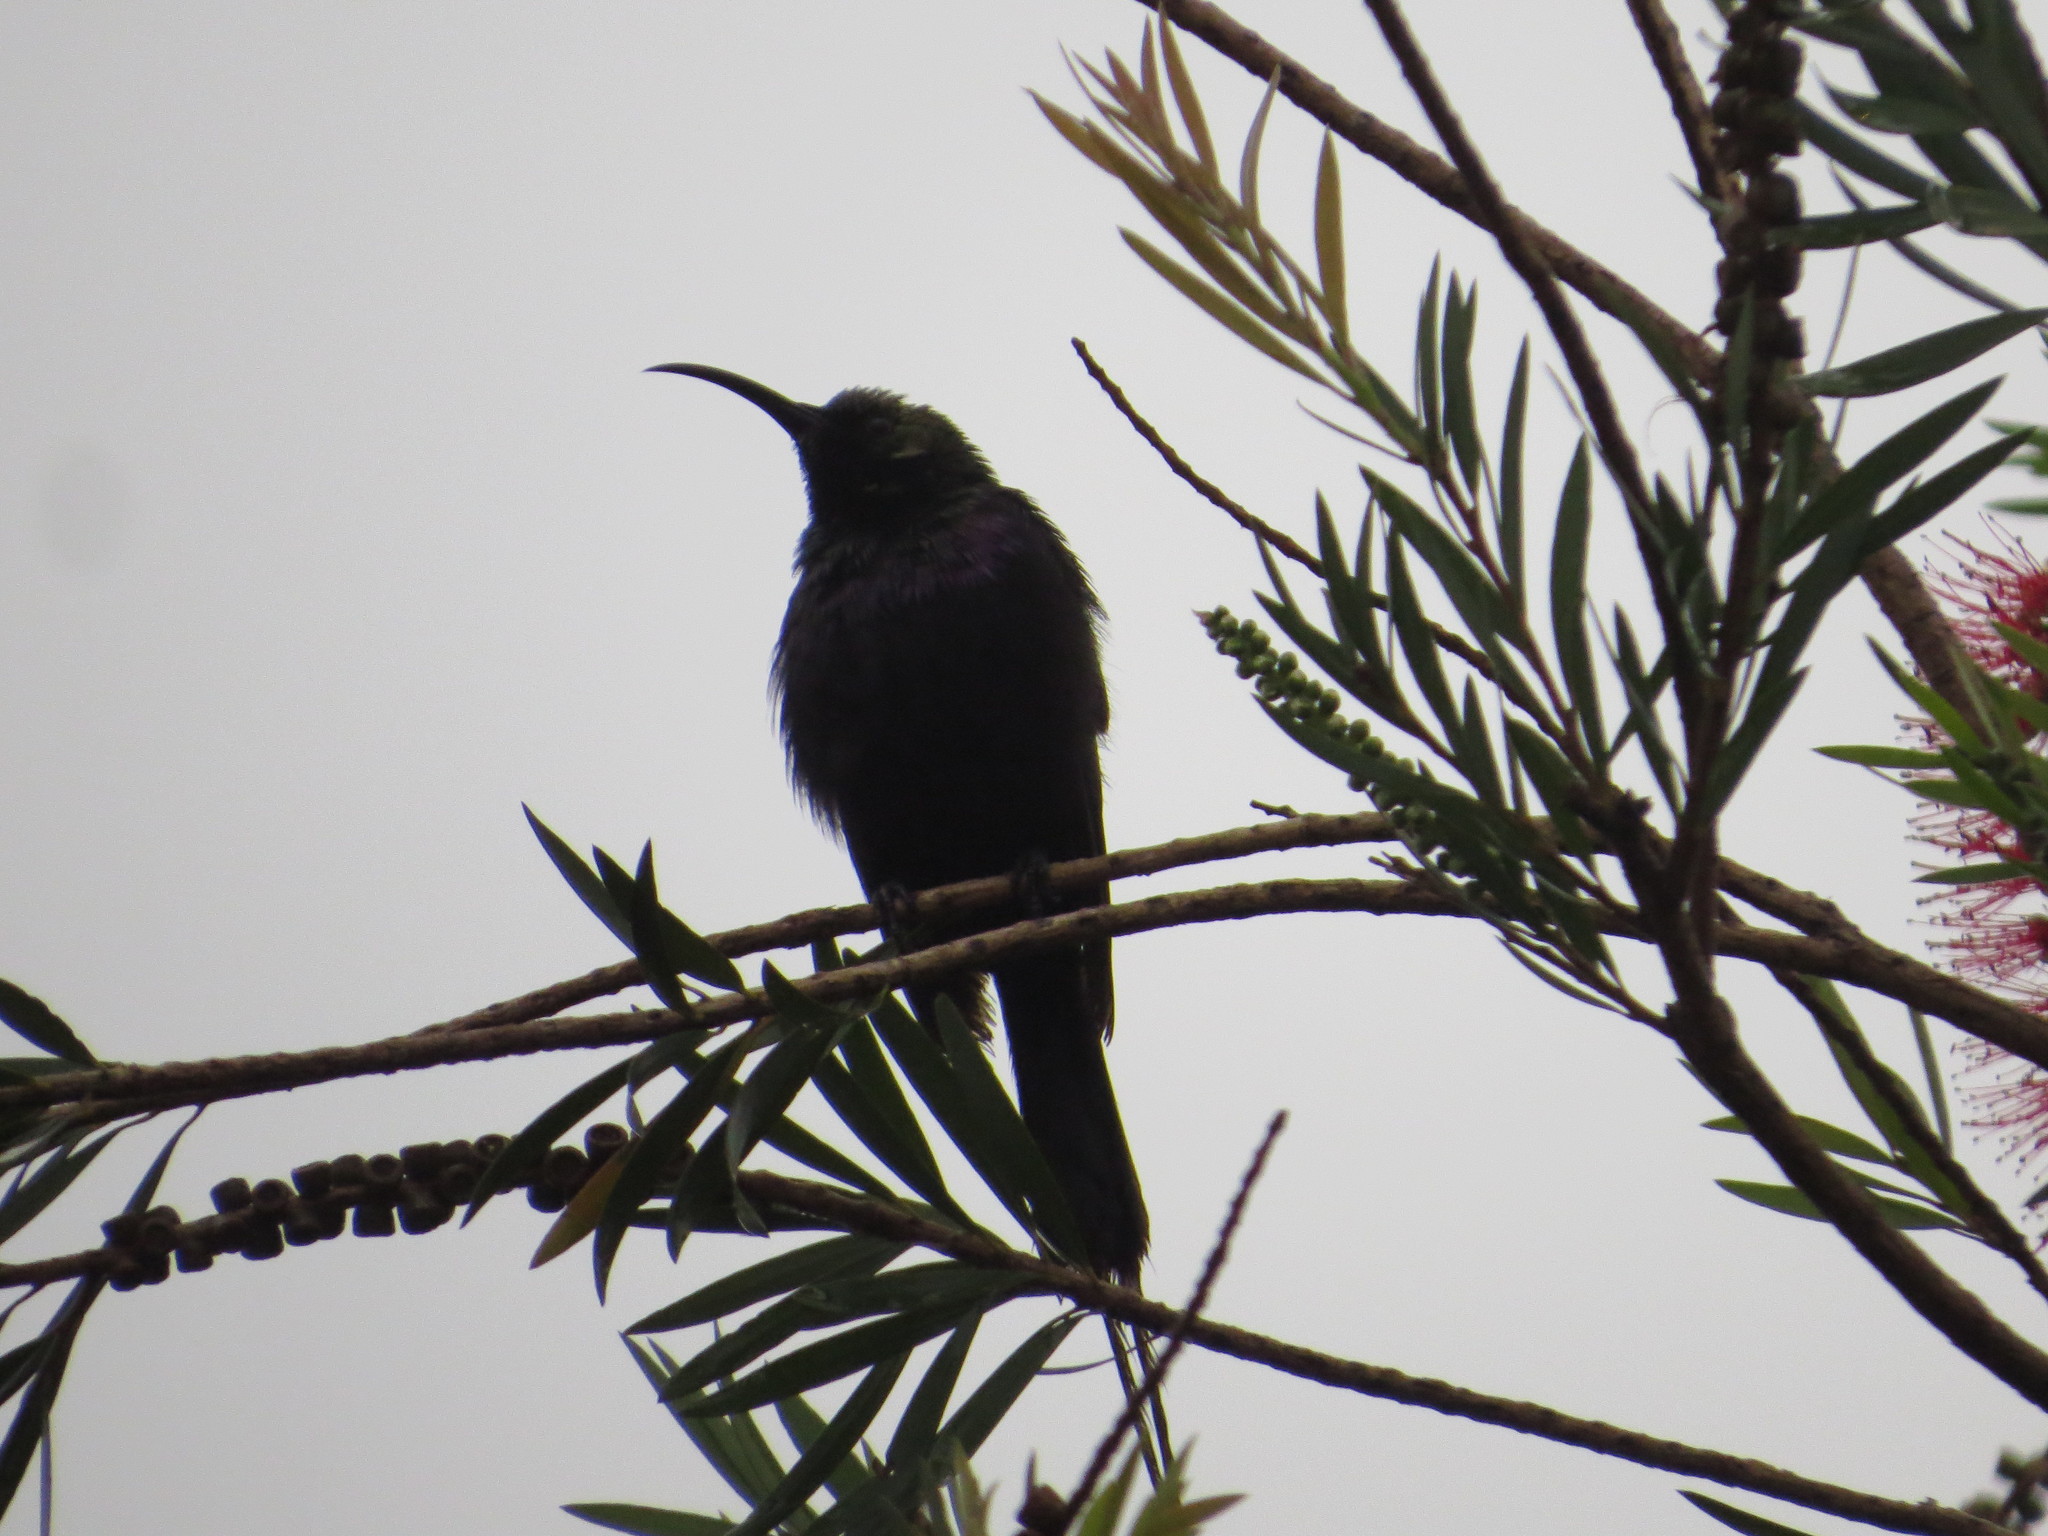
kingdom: Animalia
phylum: Chordata
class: Aves
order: Passeriformes
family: Nectariniidae
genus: Nectarinia
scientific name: Nectarinia tacazze
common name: Tacazze sunbird
